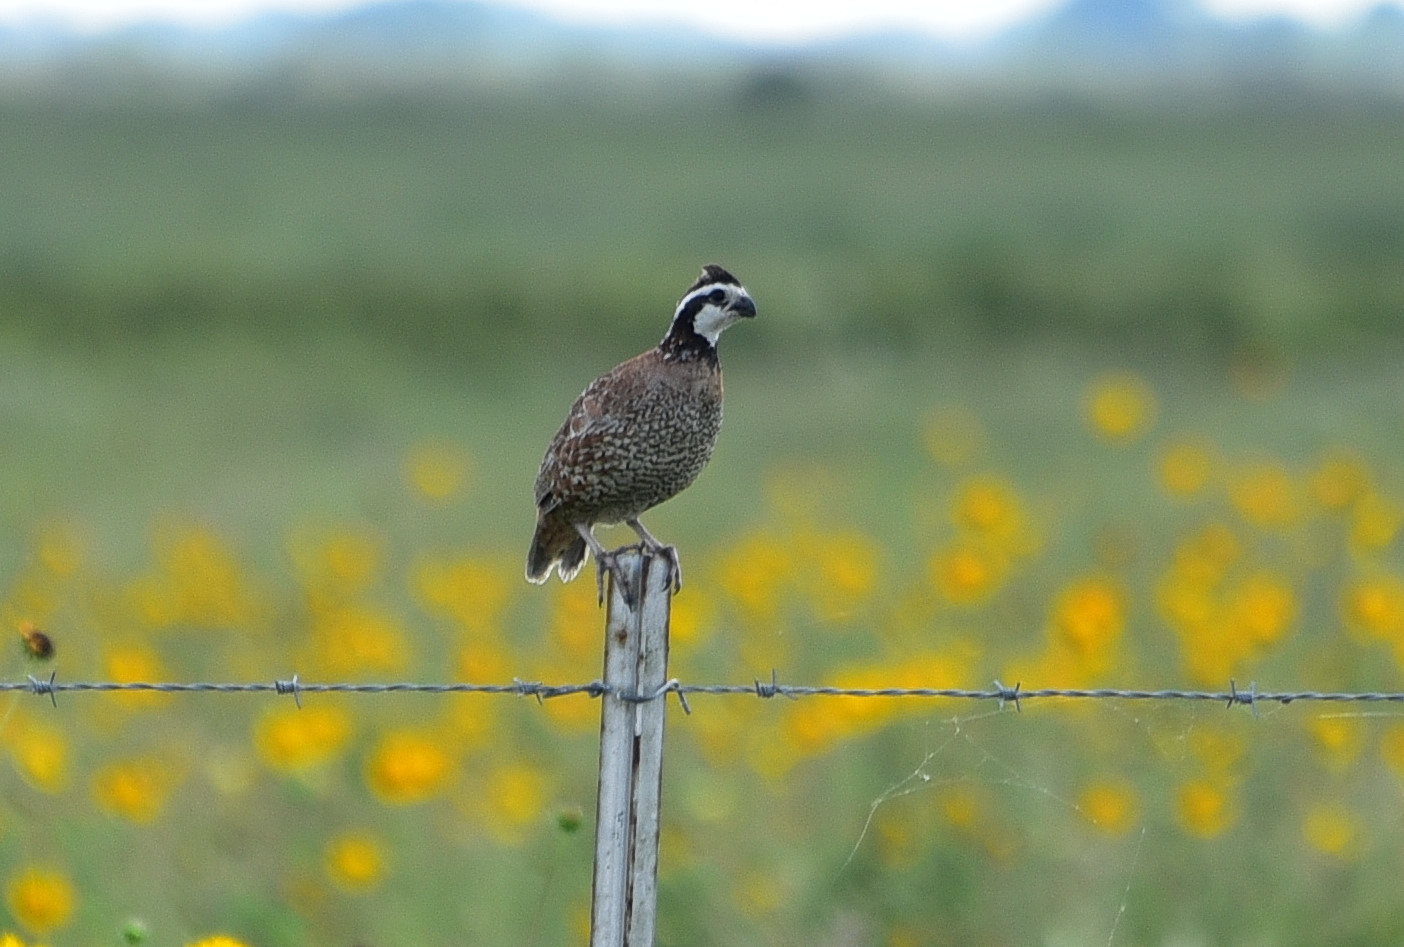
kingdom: Animalia
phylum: Chordata
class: Aves
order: Galliformes
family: Odontophoridae
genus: Colinus
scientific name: Colinus virginianus
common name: Northern bobwhite
